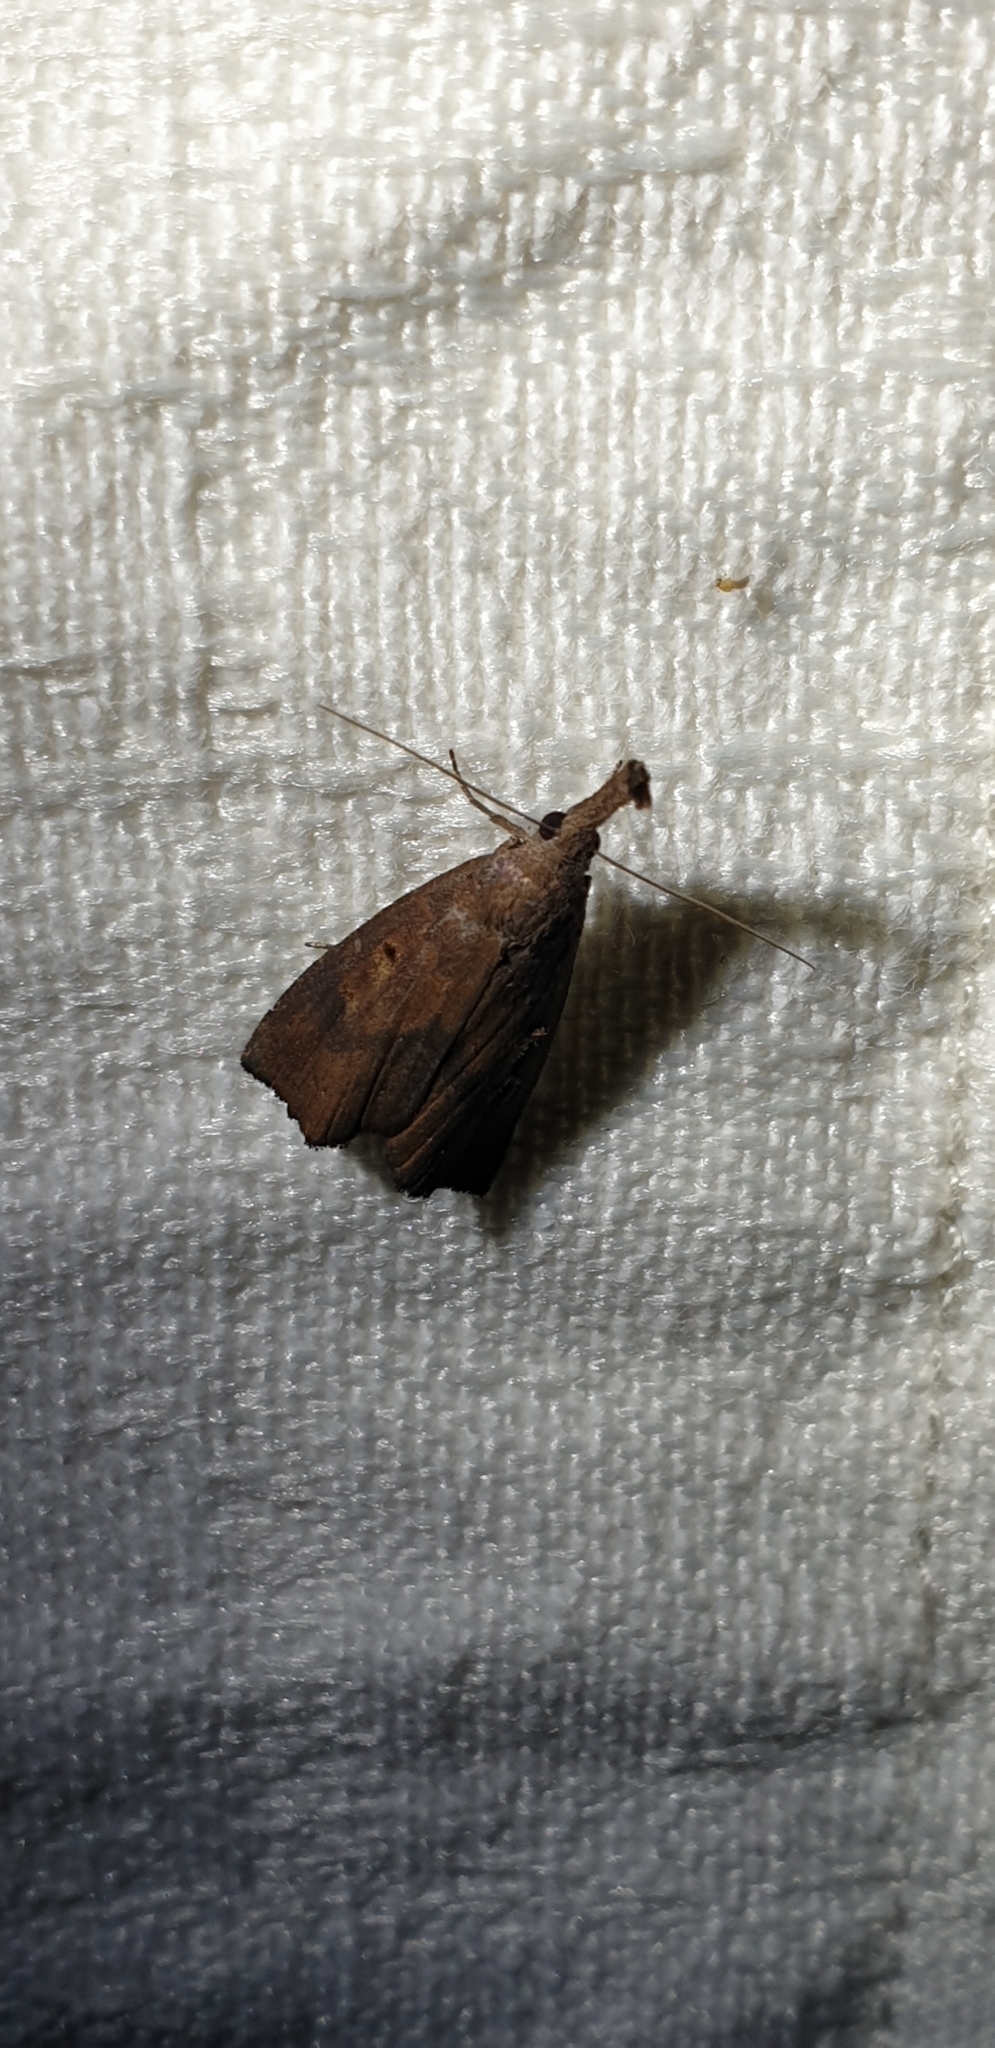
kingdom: Animalia
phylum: Arthropoda
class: Insecta
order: Lepidoptera
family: Erebidae
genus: Hypena
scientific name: Hypena subvittalis
